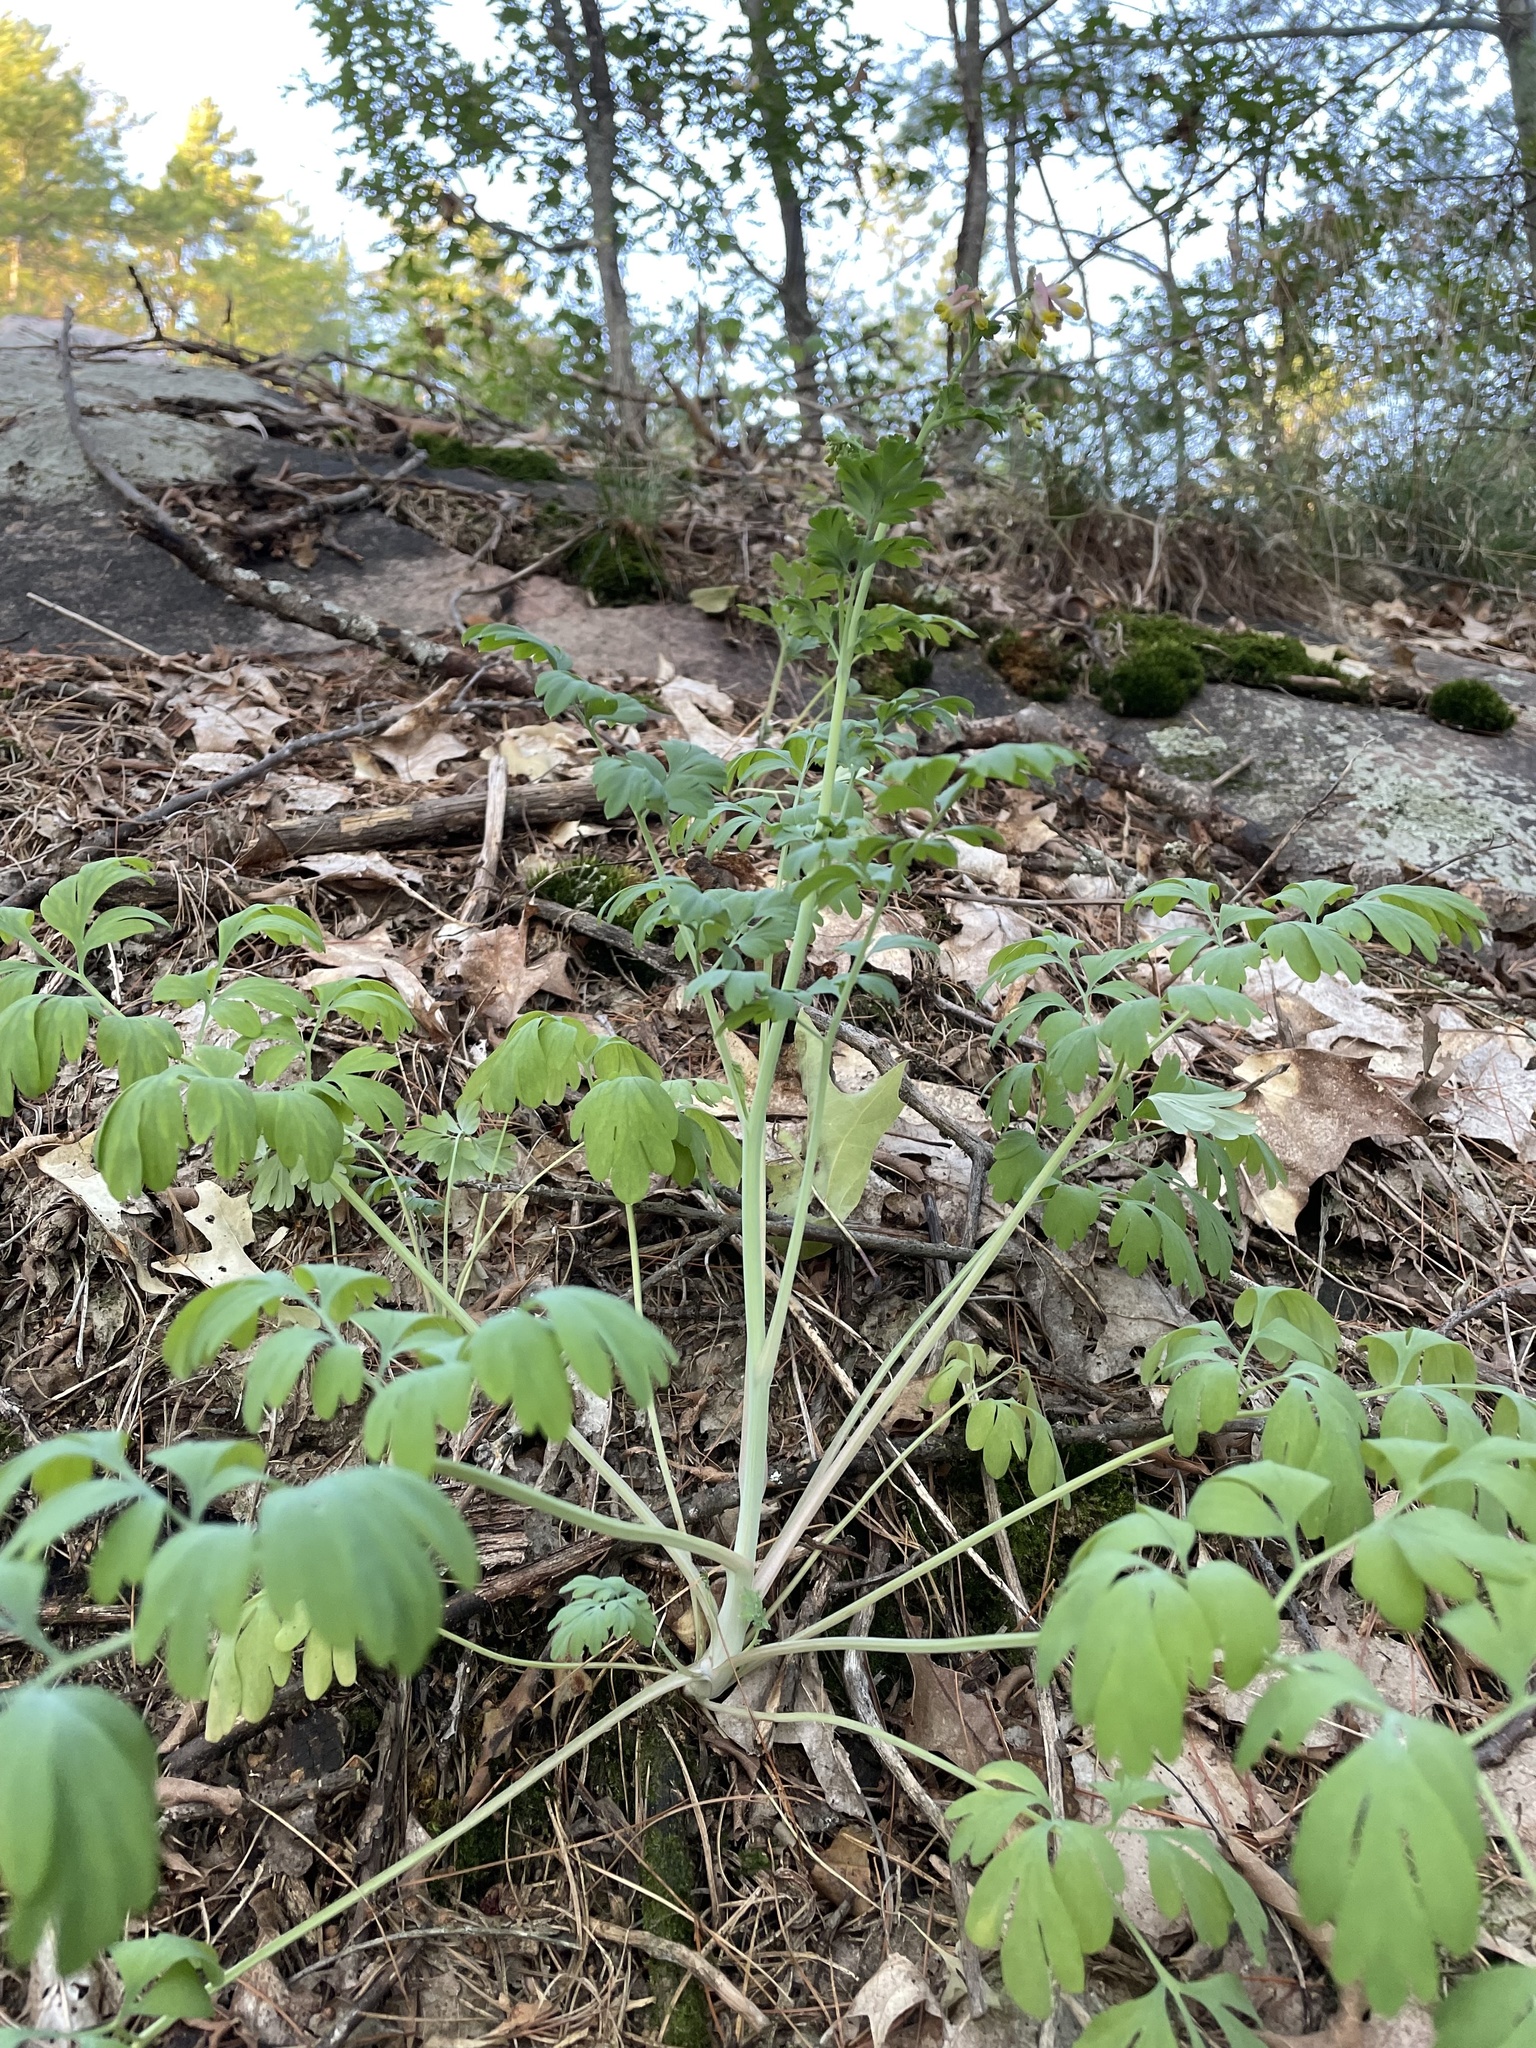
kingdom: Plantae
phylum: Tracheophyta
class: Magnoliopsida
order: Ranunculales
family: Papaveraceae
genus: Capnoides
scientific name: Capnoides sempervirens
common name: Rock harlequin
